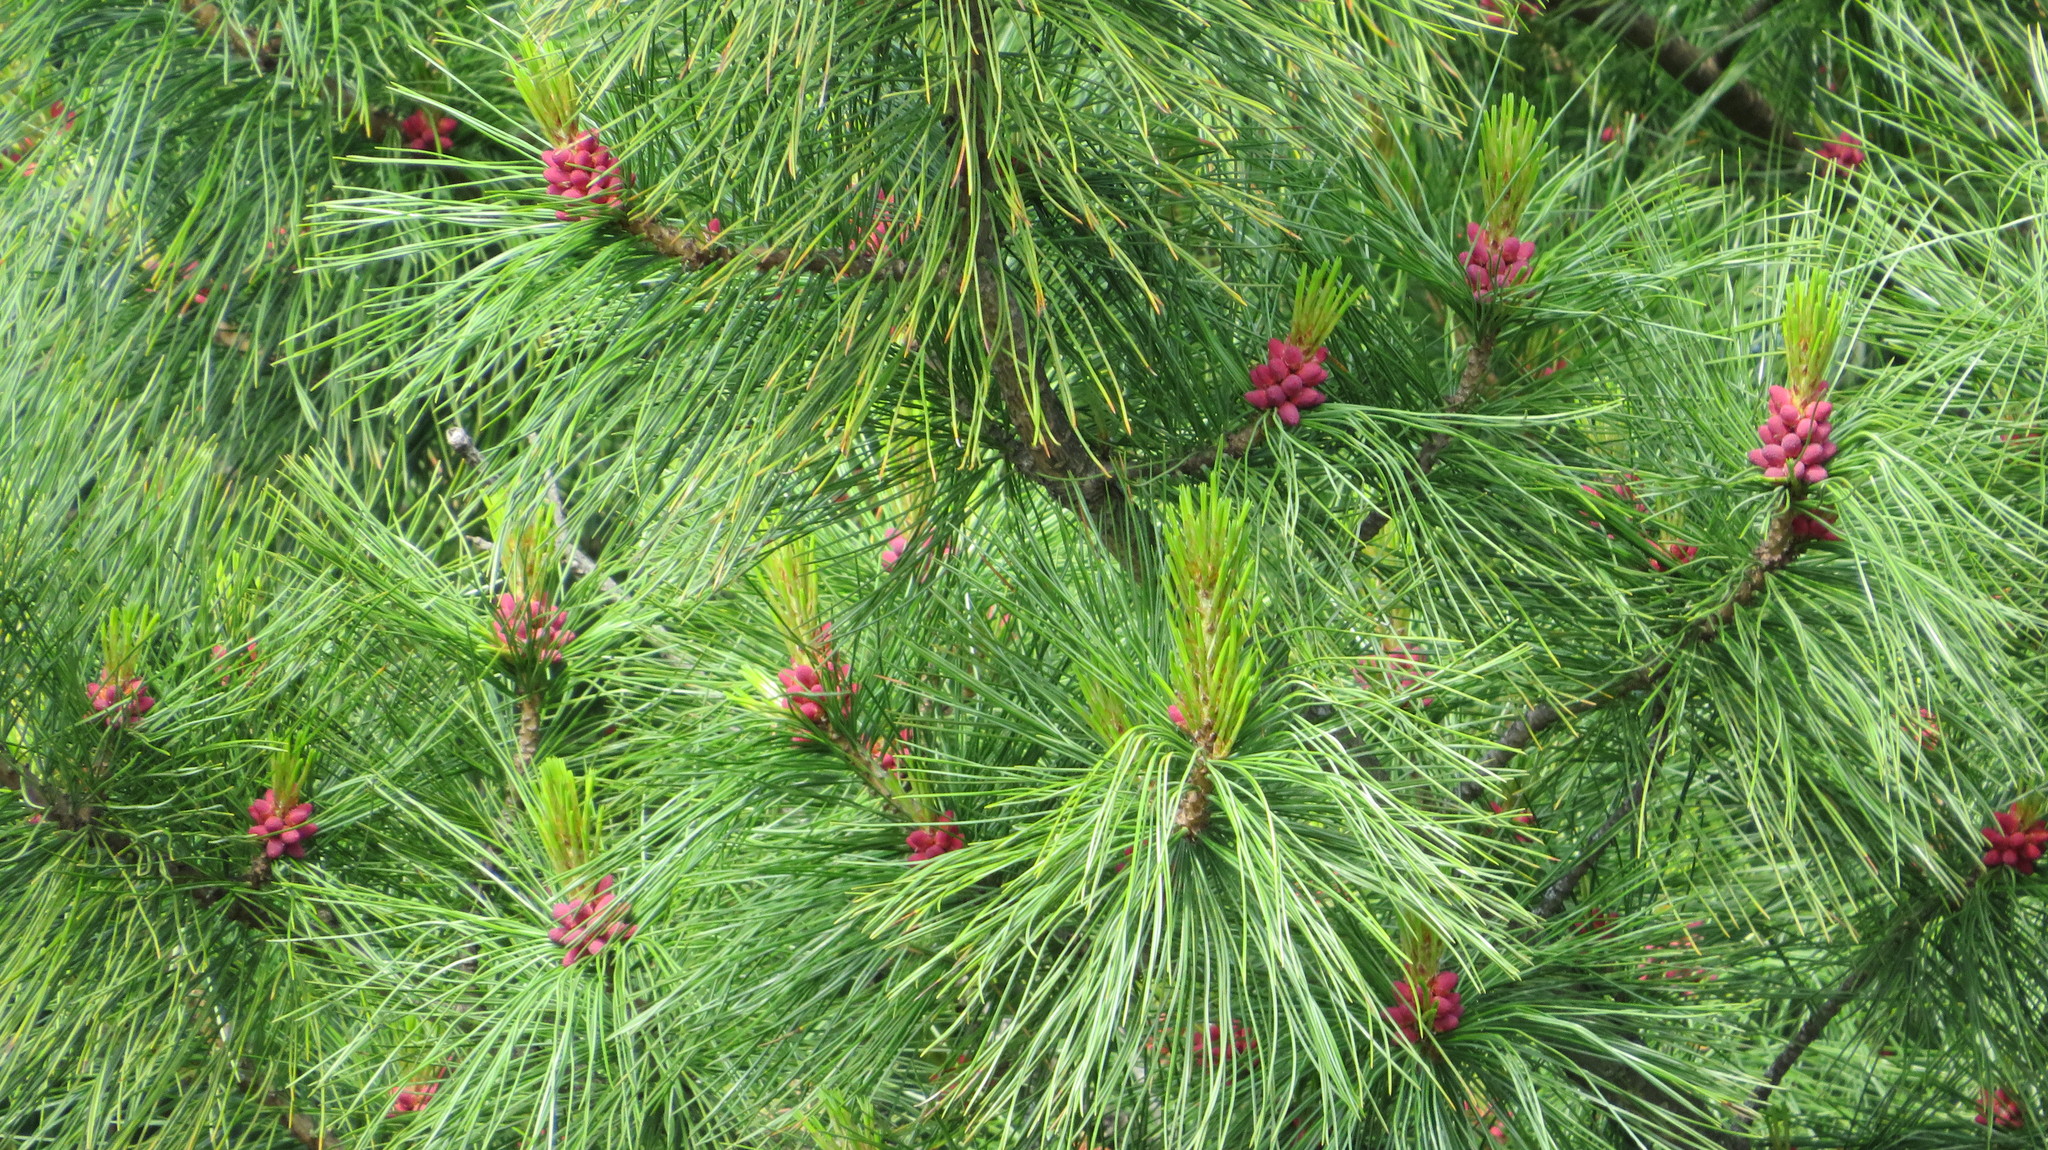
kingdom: Plantae
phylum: Tracheophyta
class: Pinopsida
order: Pinales
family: Pinaceae
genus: Pinus
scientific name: Pinus sibirica
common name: Siberian pine
